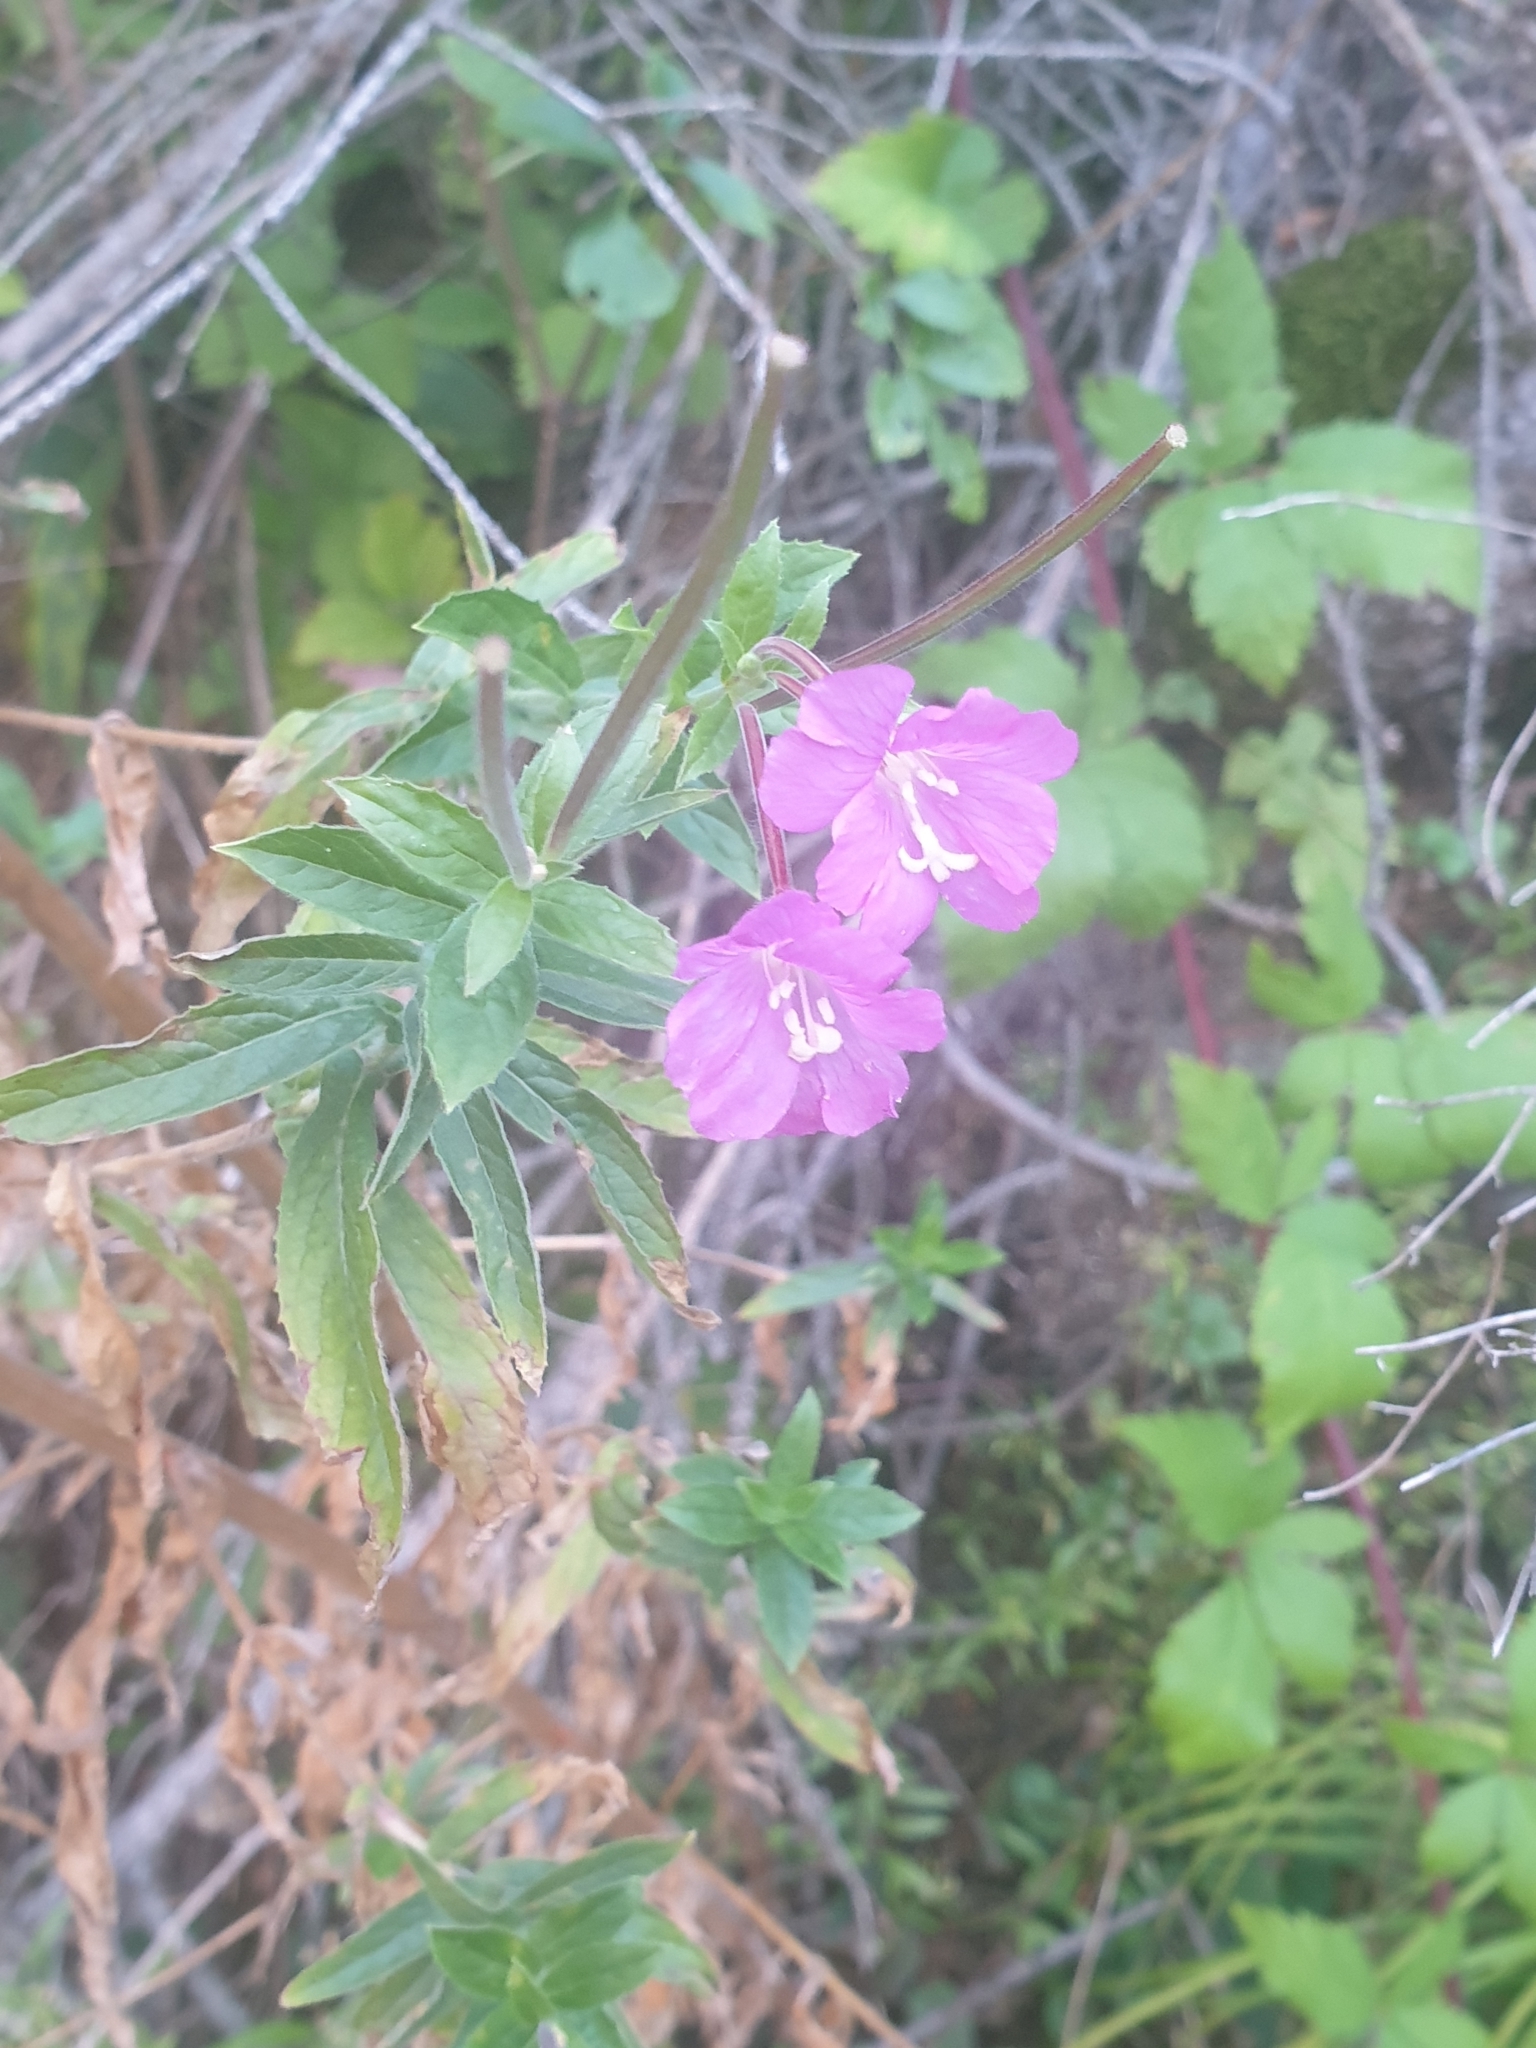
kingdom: Plantae
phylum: Tracheophyta
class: Magnoliopsida
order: Myrtales
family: Onagraceae
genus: Epilobium
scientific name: Epilobium hirsutum
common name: Great willowherb
